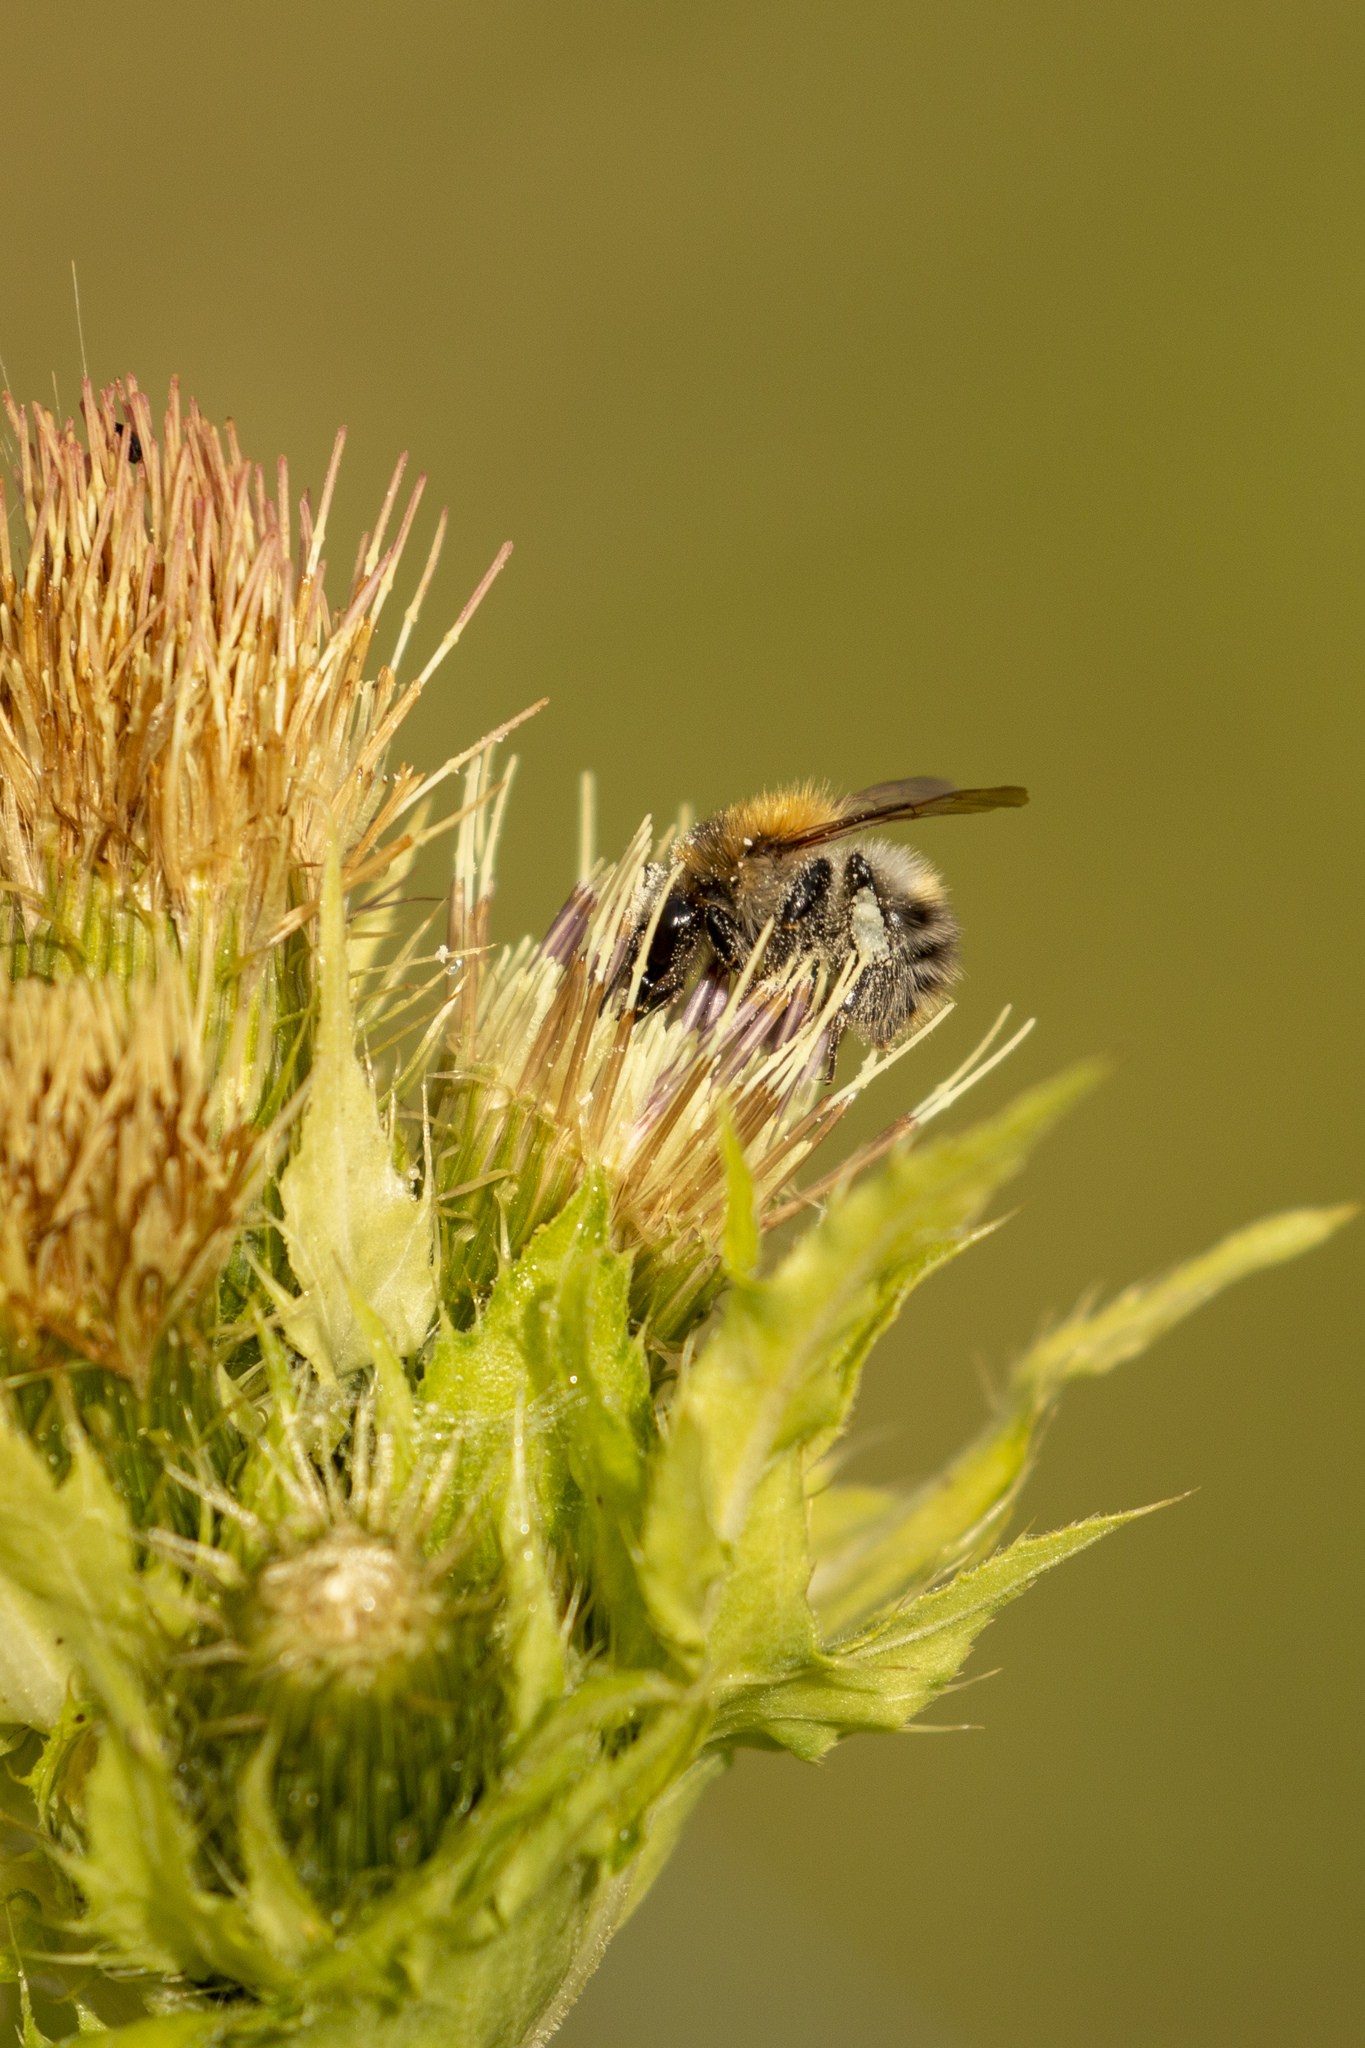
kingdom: Animalia
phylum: Arthropoda
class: Insecta
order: Hymenoptera
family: Apidae
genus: Bombus
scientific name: Bombus pascuorum
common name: Common carder bee
